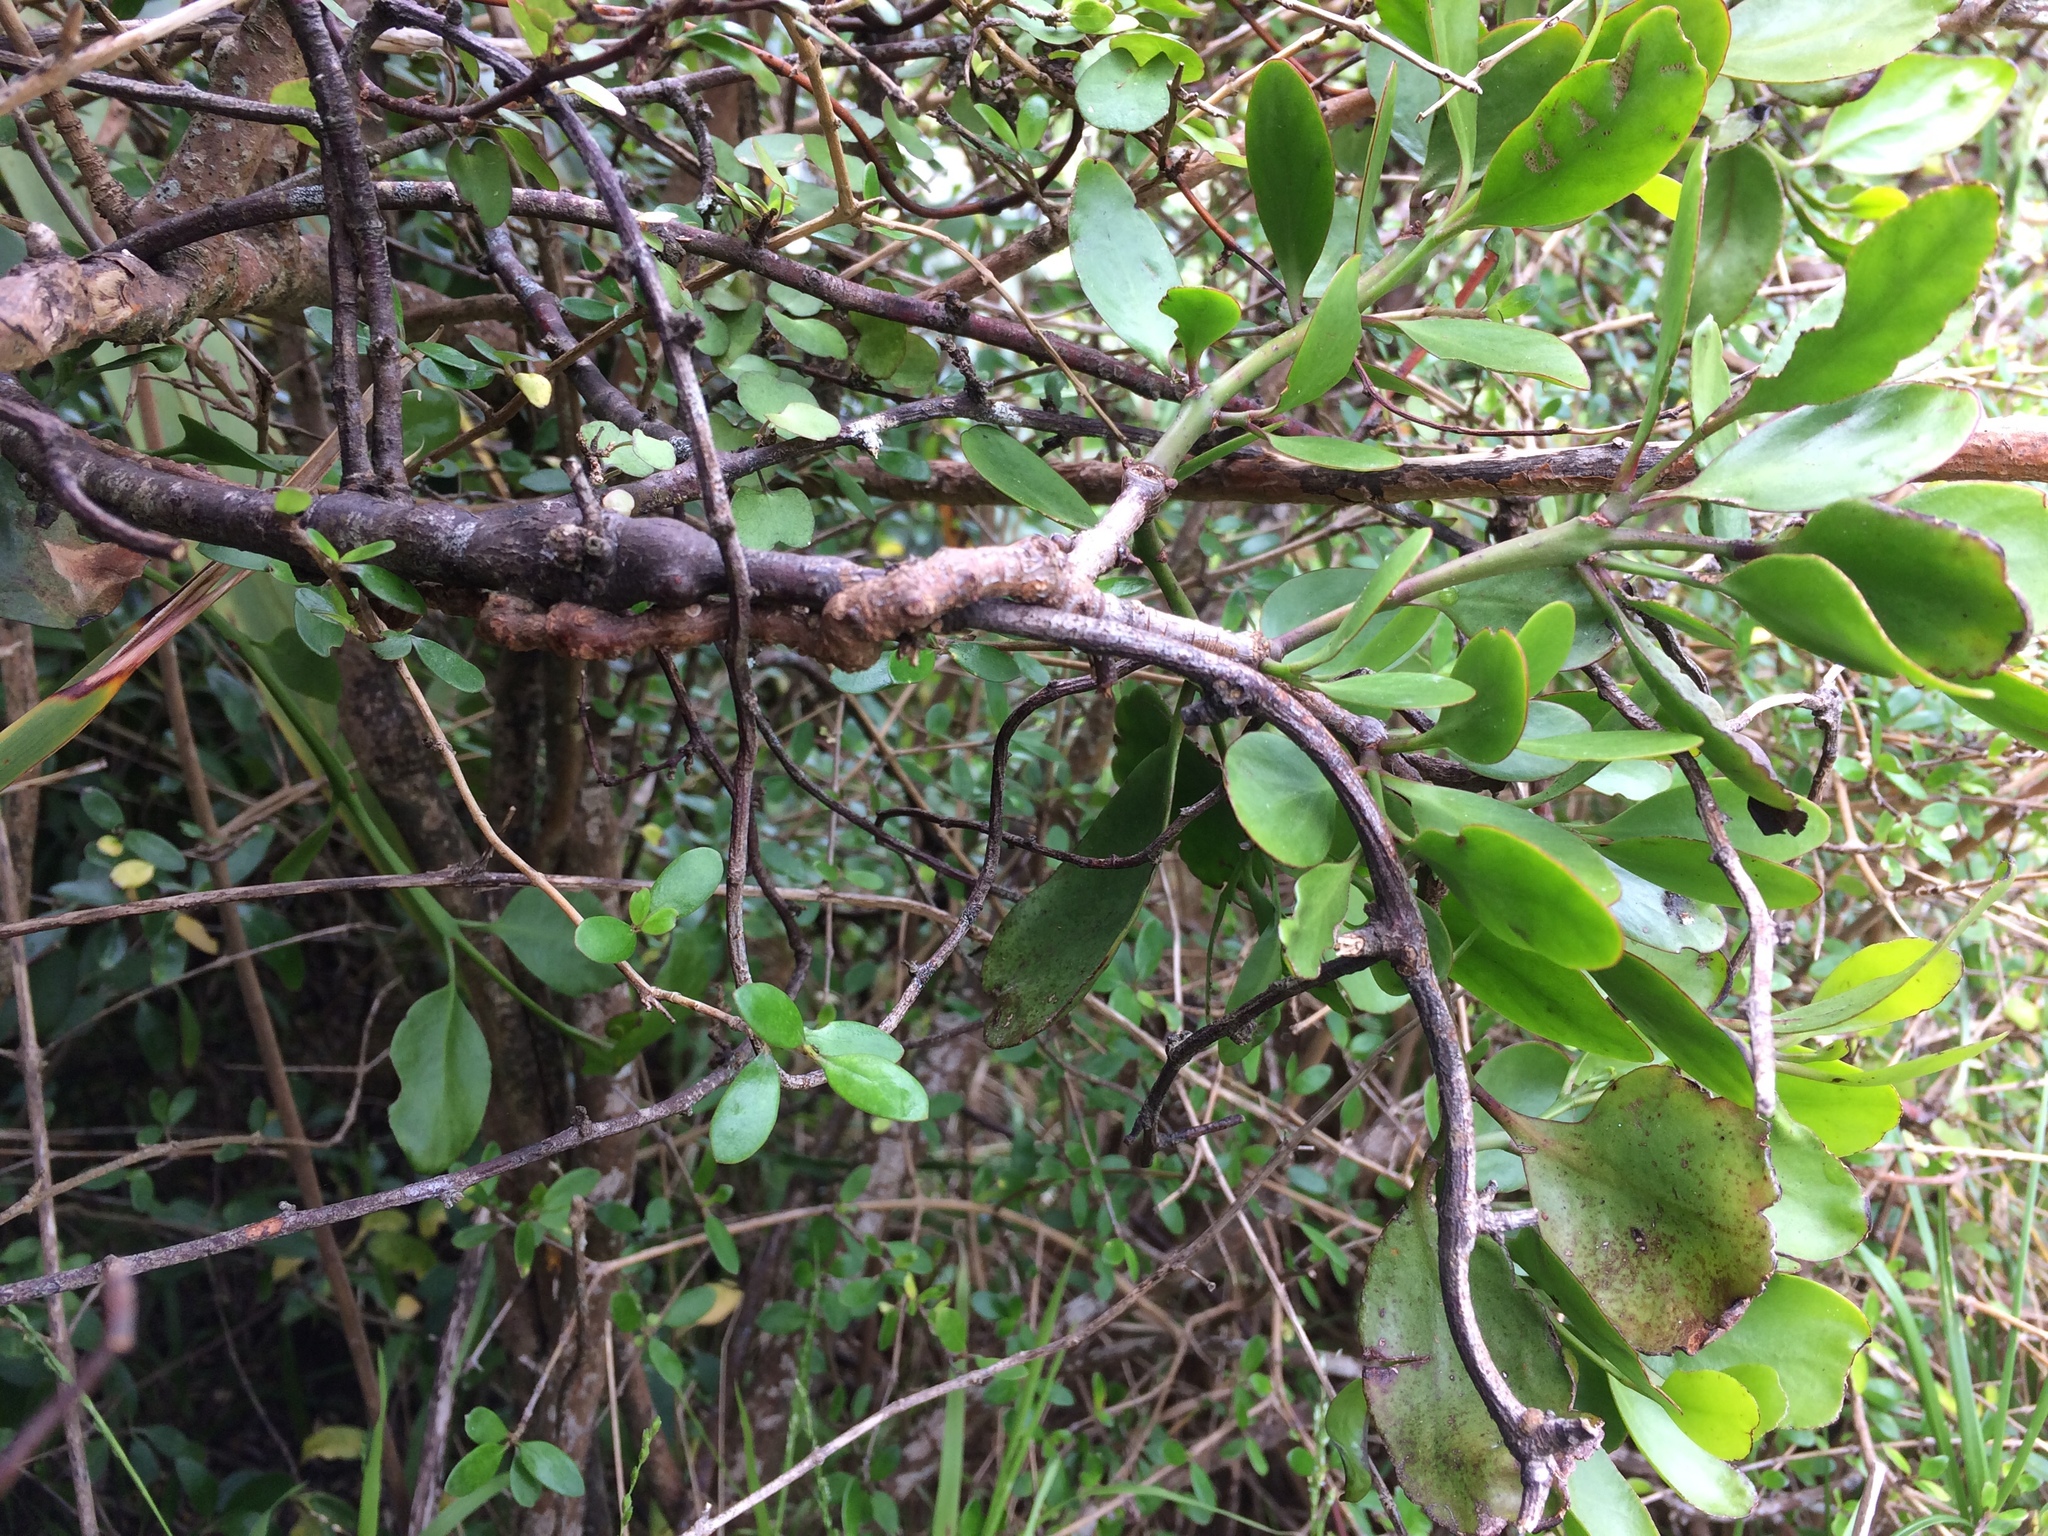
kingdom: Plantae
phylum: Tracheophyta
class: Magnoliopsida
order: Santalales
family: Loranthaceae
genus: Ileostylus
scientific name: Ileostylus micranthus
